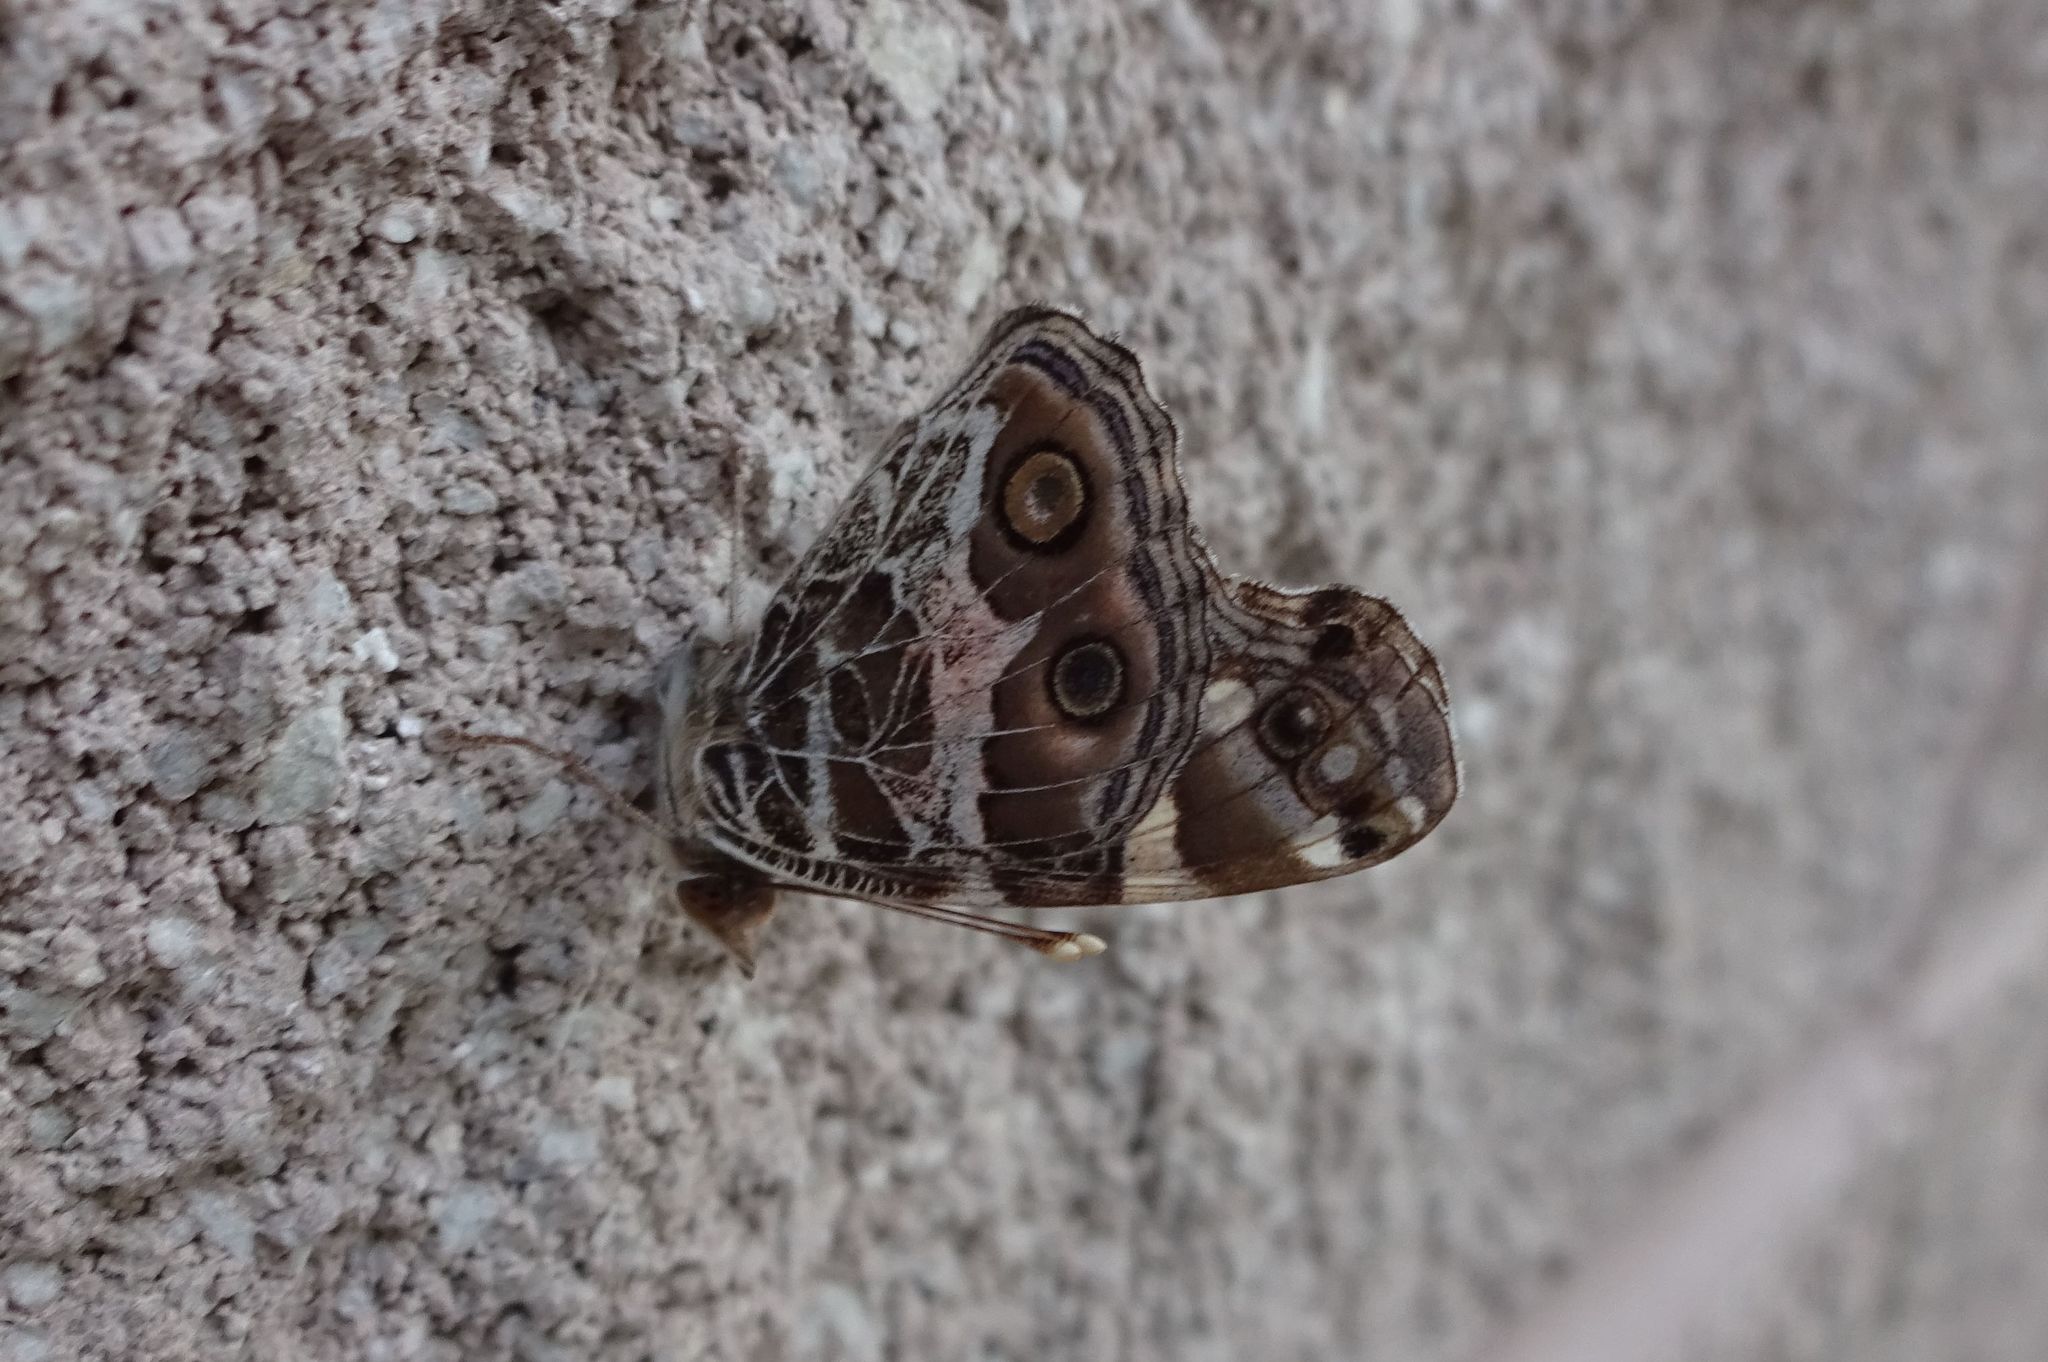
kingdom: Animalia
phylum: Arthropoda
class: Insecta
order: Lepidoptera
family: Nymphalidae
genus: Vanessa
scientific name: Vanessa virginiensis
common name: American lady
